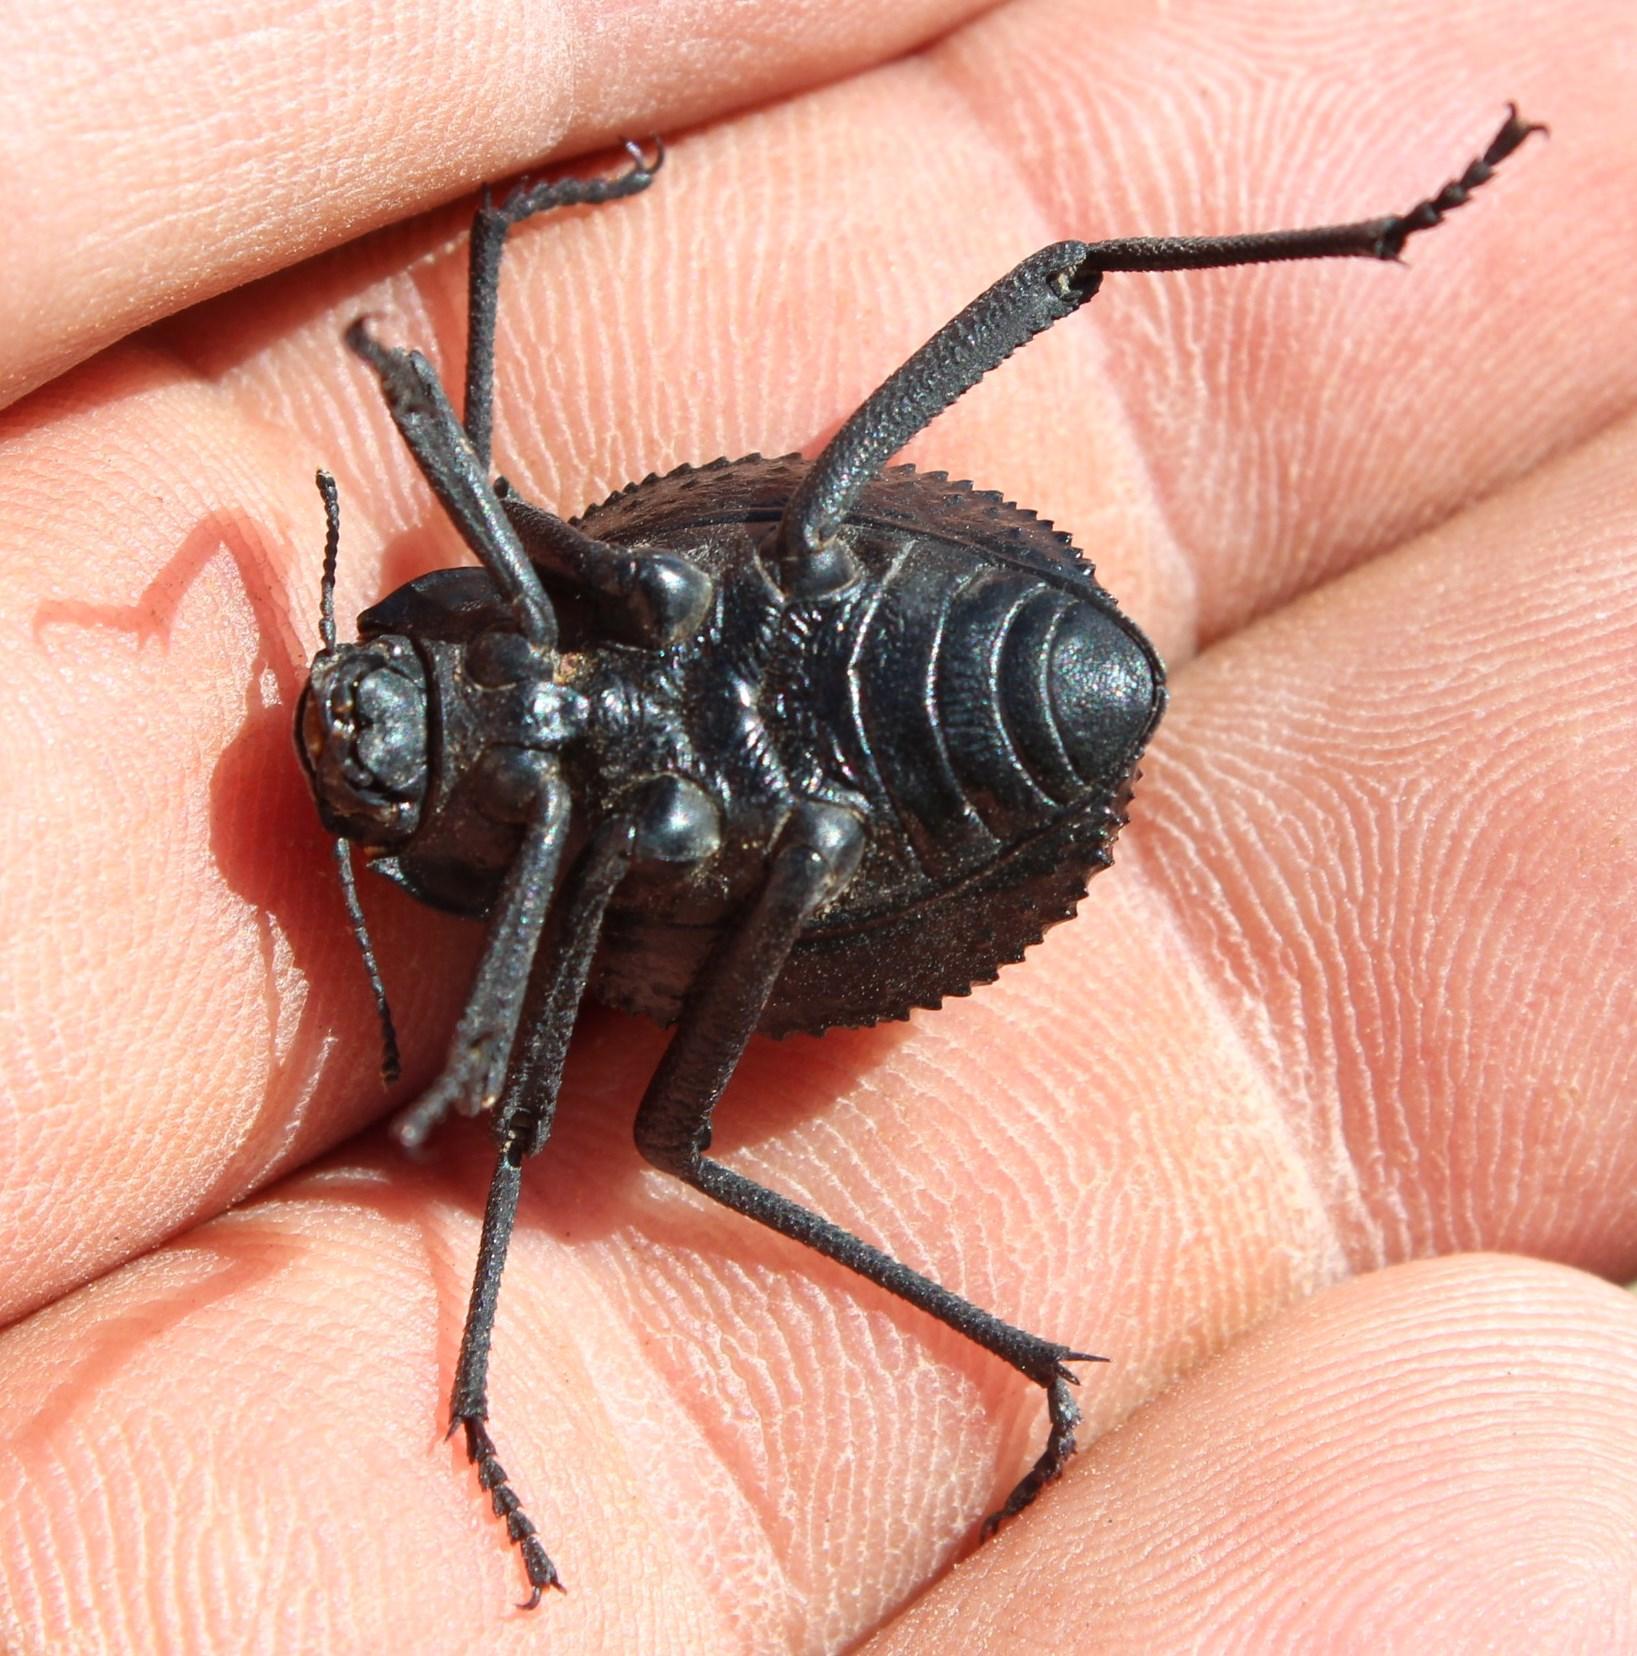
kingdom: Animalia
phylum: Arthropoda
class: Insecta
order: Coleoptera
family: Tenebrionidae
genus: Adesmia
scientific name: Adesmia
